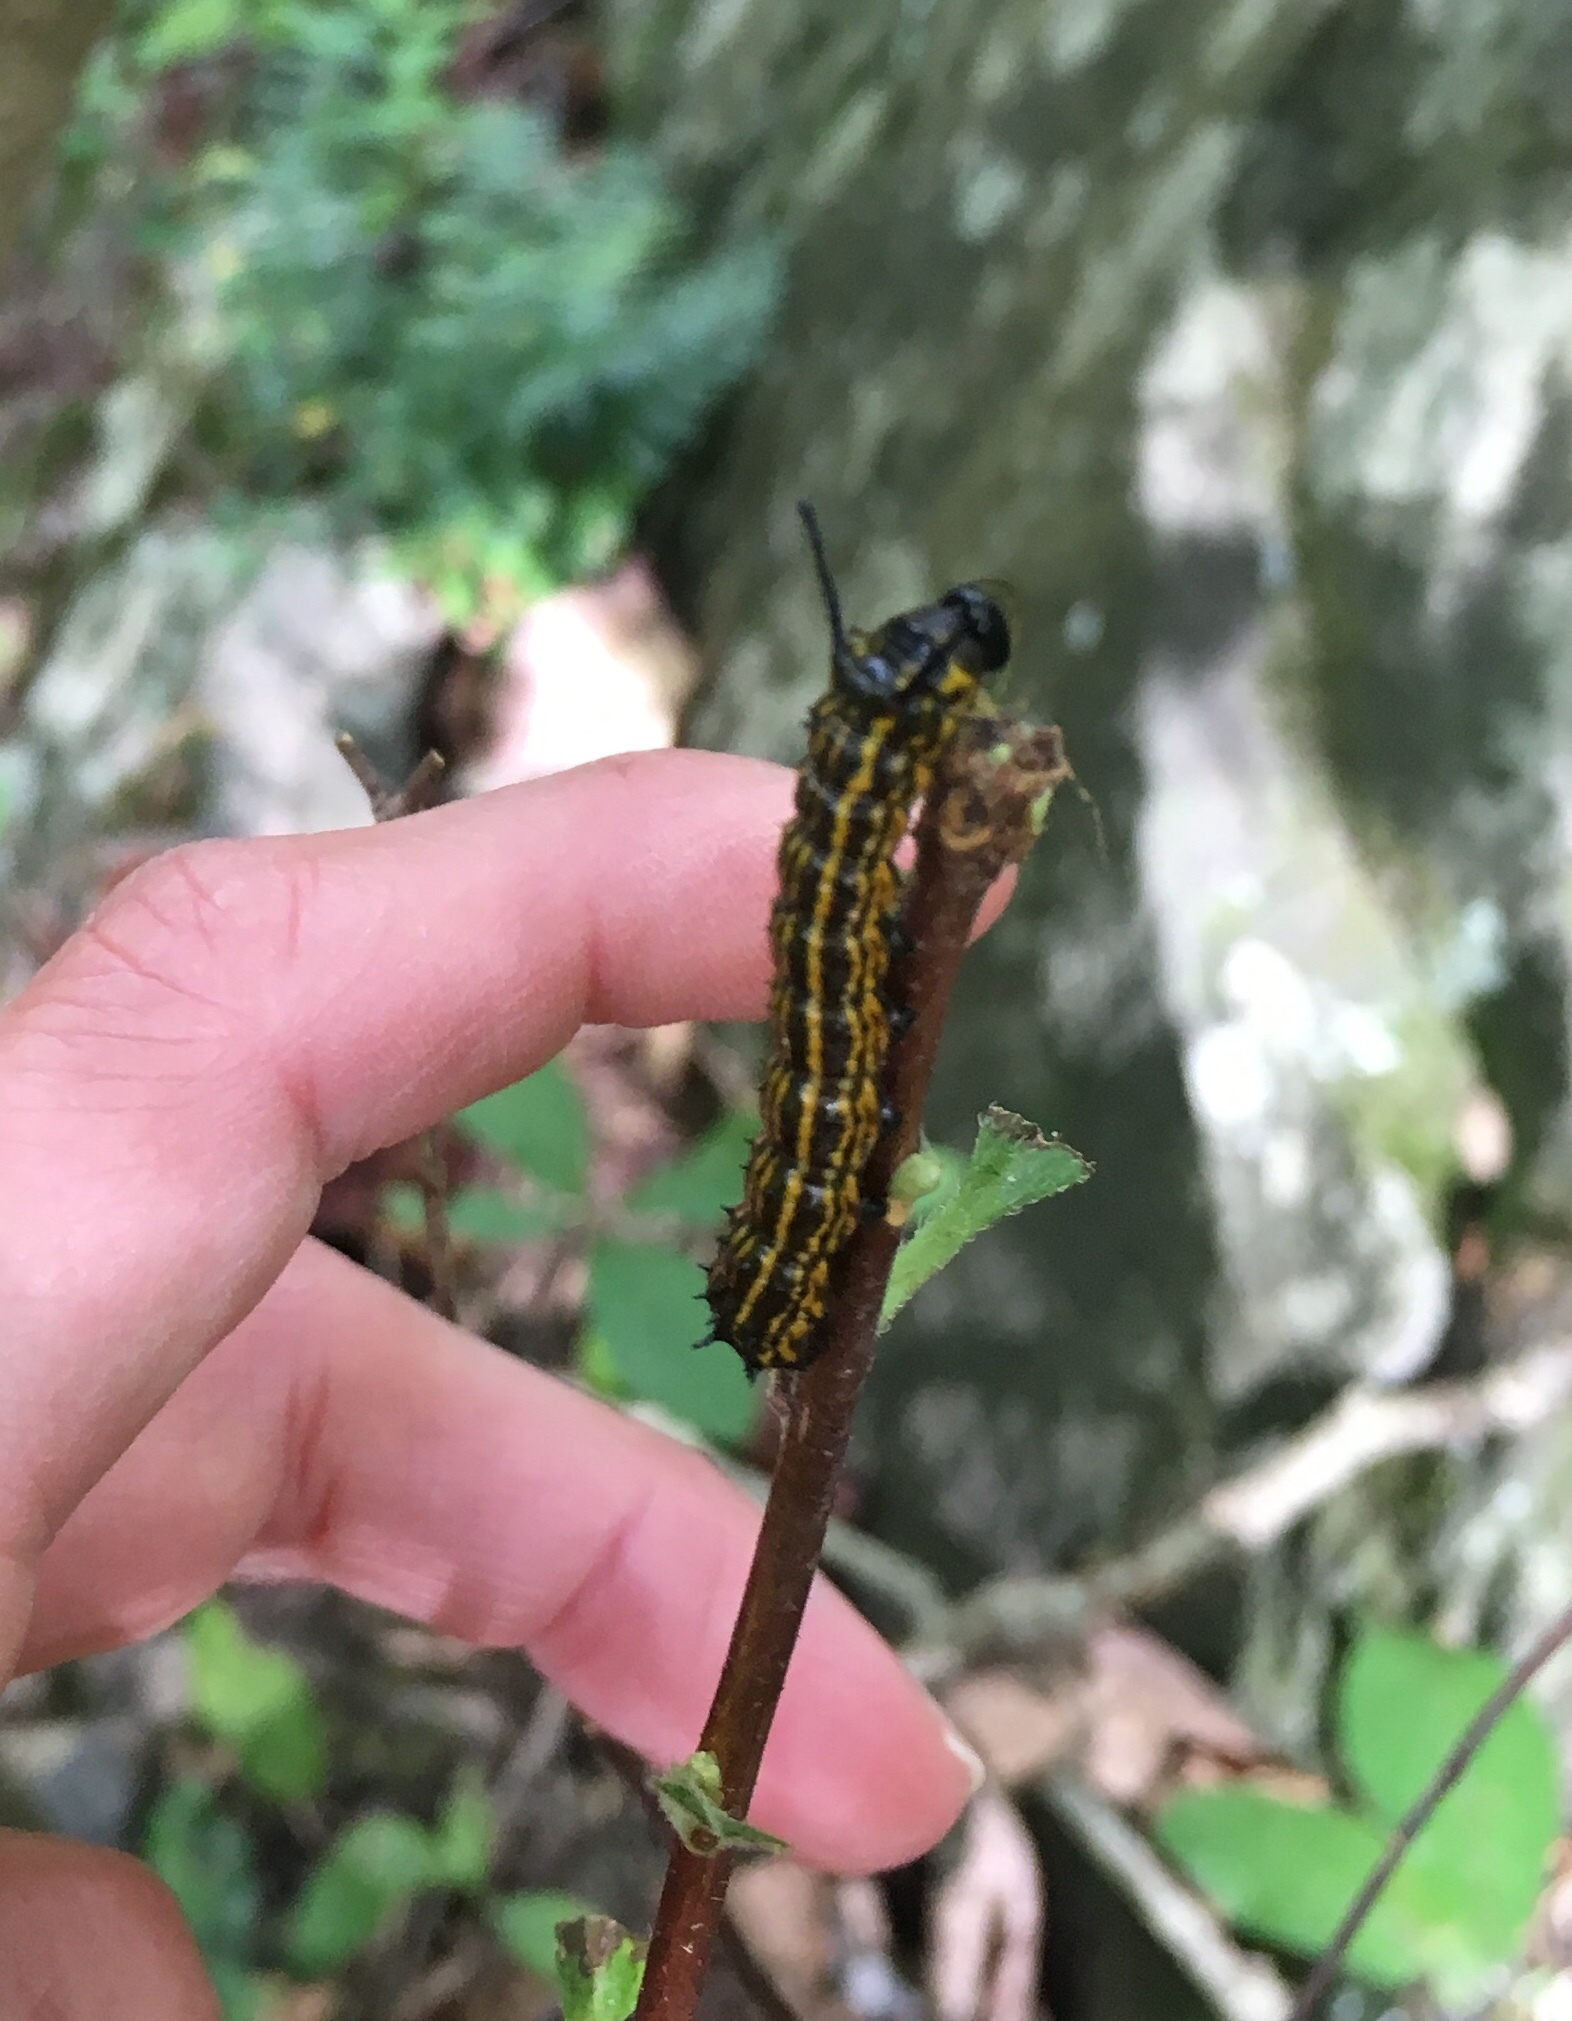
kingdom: Animalia
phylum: Arthropoda
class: Insecta
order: Lepidoptera
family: Saturniidae
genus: Anisota
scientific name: Anisota senatoria
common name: Orange-striped oakworm moth
